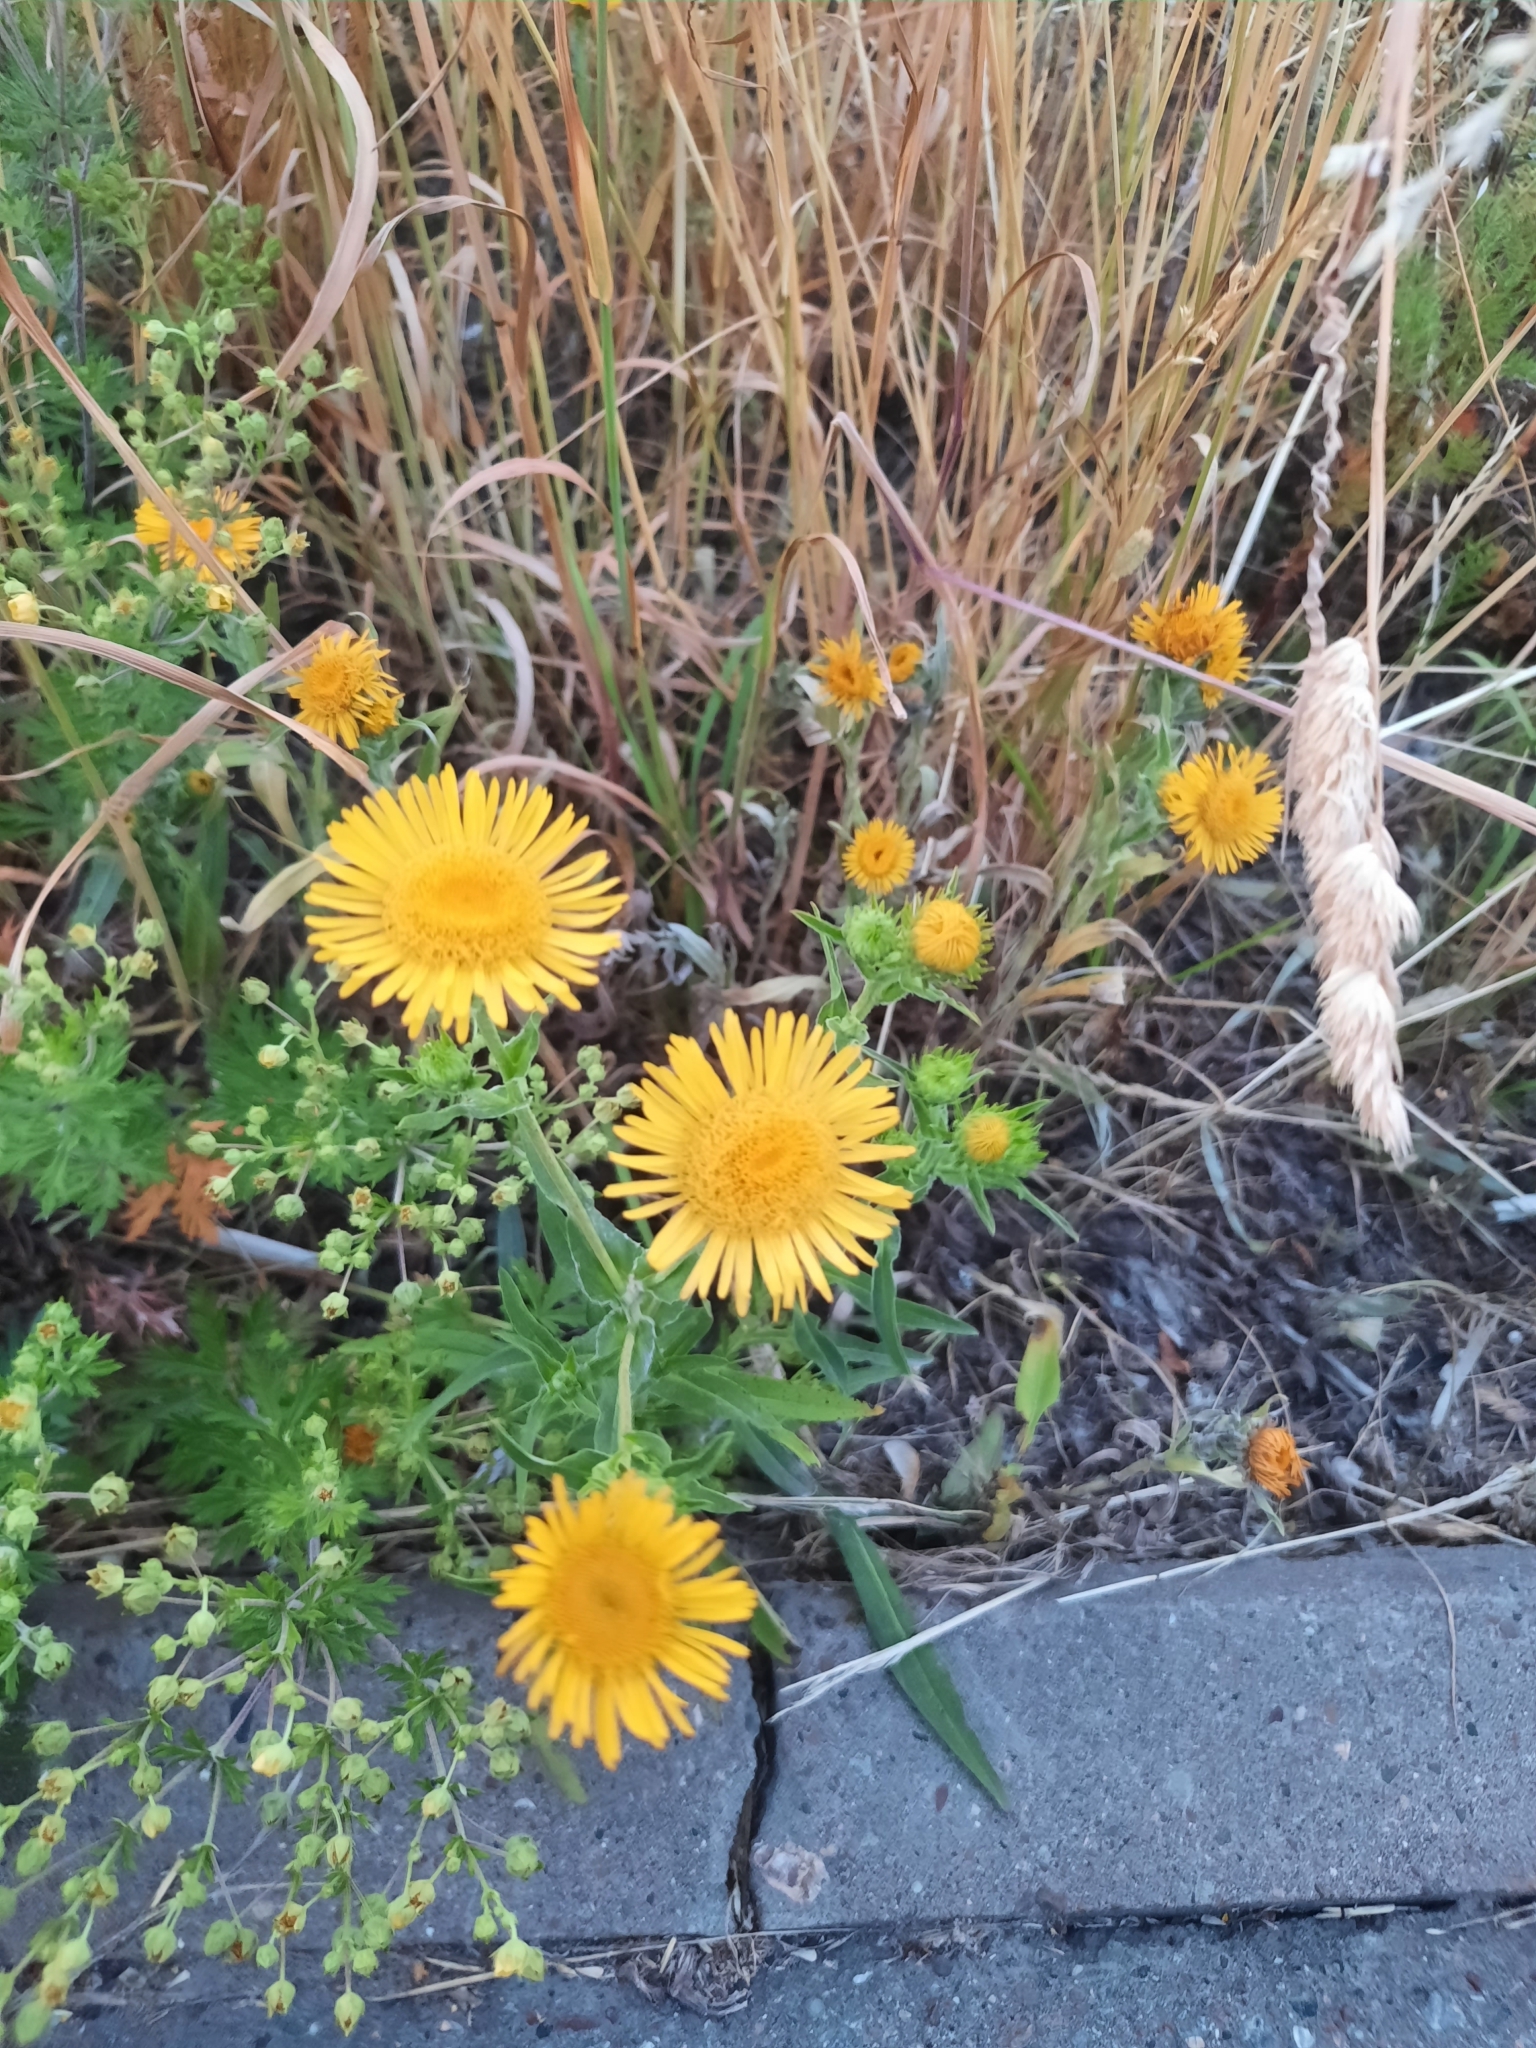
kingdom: Plantae
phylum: Tracheophyta
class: Magnoliopsida
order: Asterales
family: Asteraceae
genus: Pentanema
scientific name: Pentanema britannicum
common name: British elecampane
